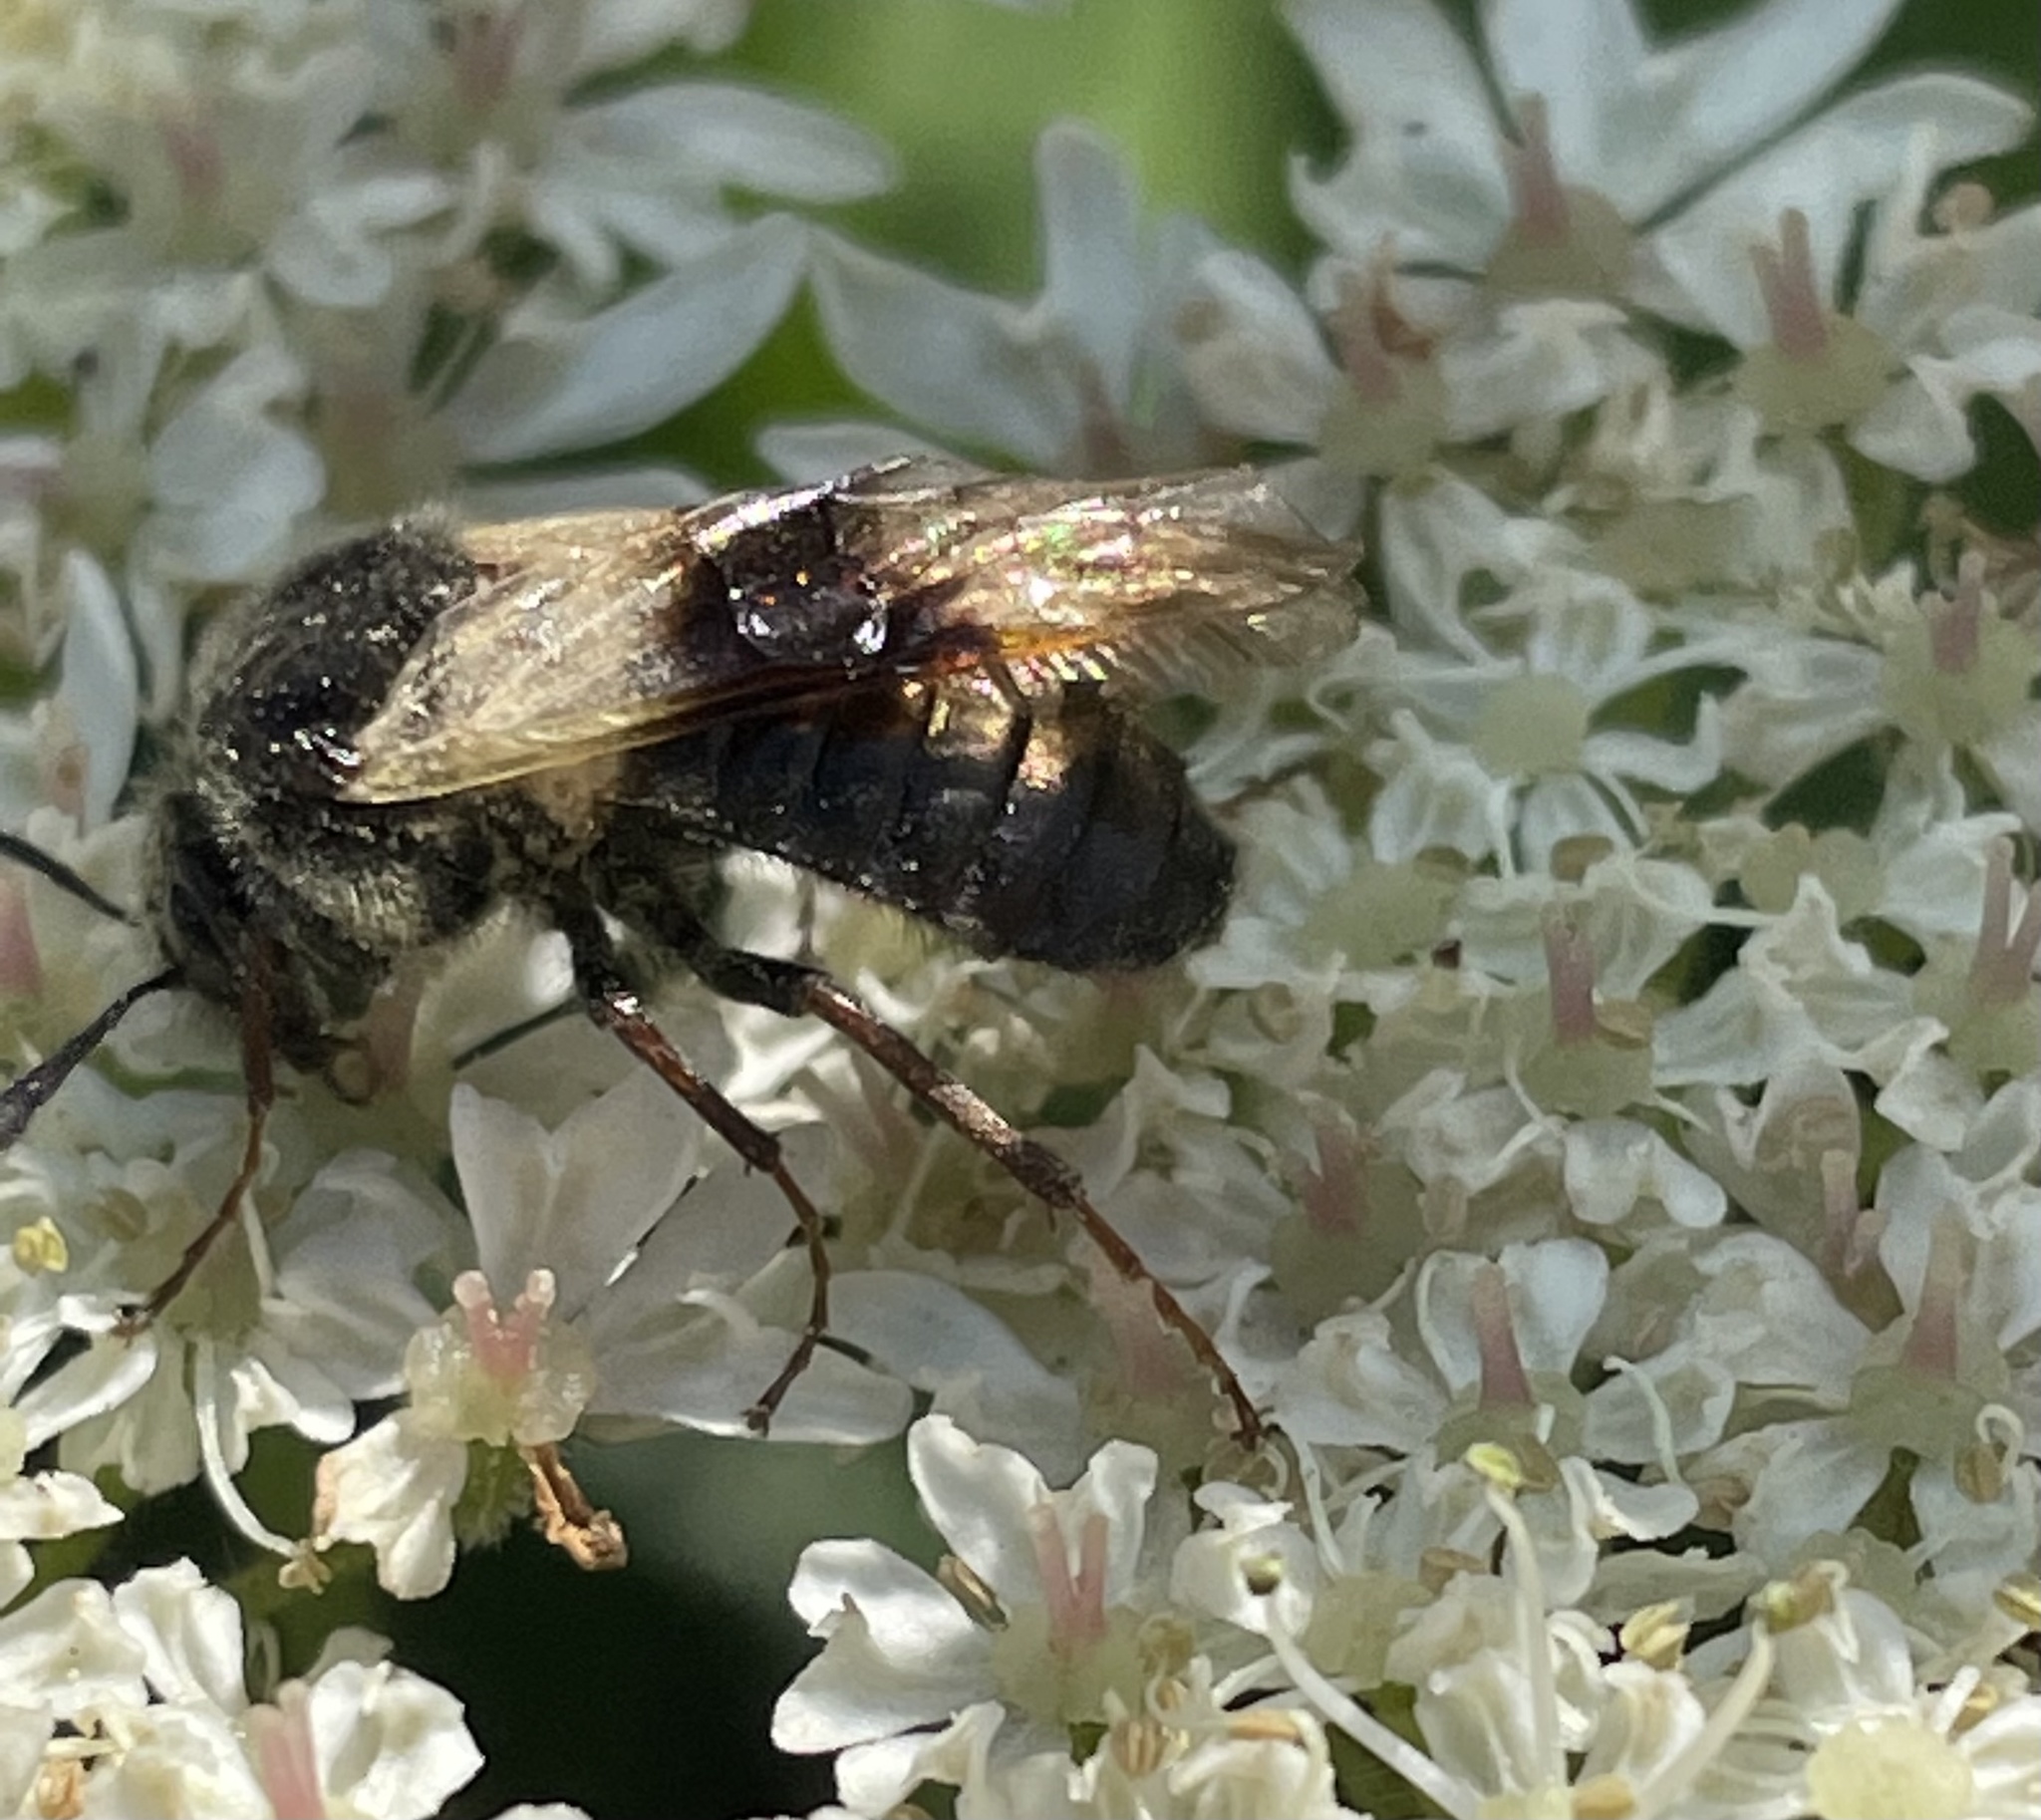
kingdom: Animalia
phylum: Arthropoda
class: Insecta
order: Hymenoptera
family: Cimbicidae
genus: Abia
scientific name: Abia fasciata
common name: Banded honeysuckle sawfly
